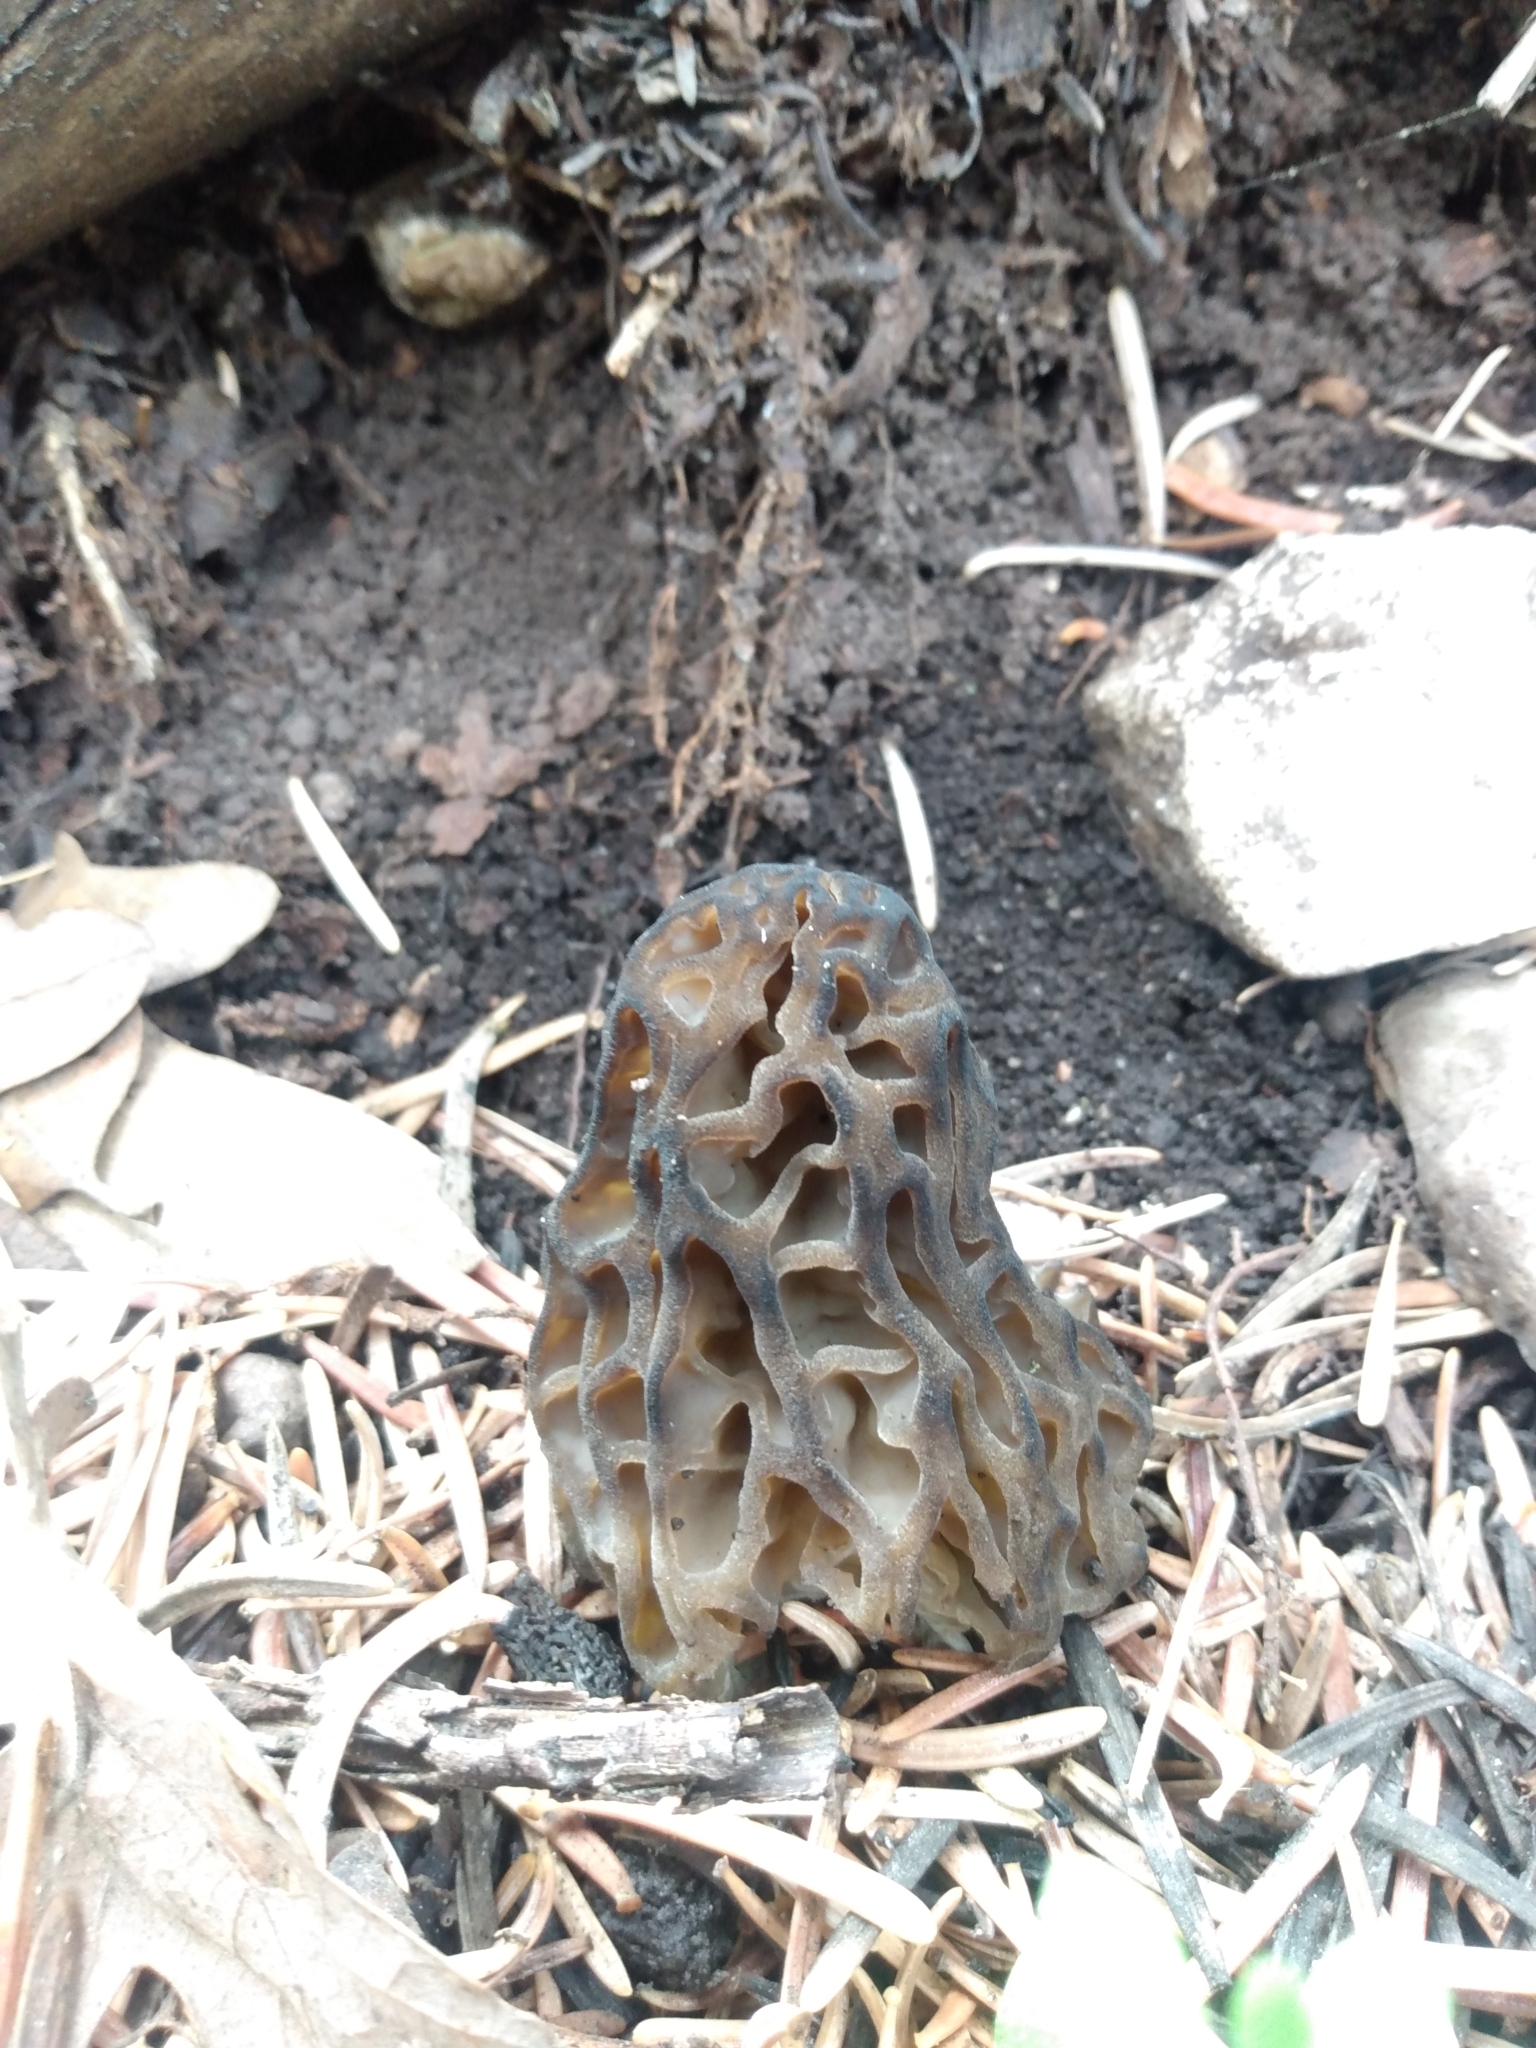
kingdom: Fungi
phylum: Ascomycota
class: Pezizomycetes
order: Pezizales
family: Morchellaceae
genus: Morchella
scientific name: Morchella snyderi
